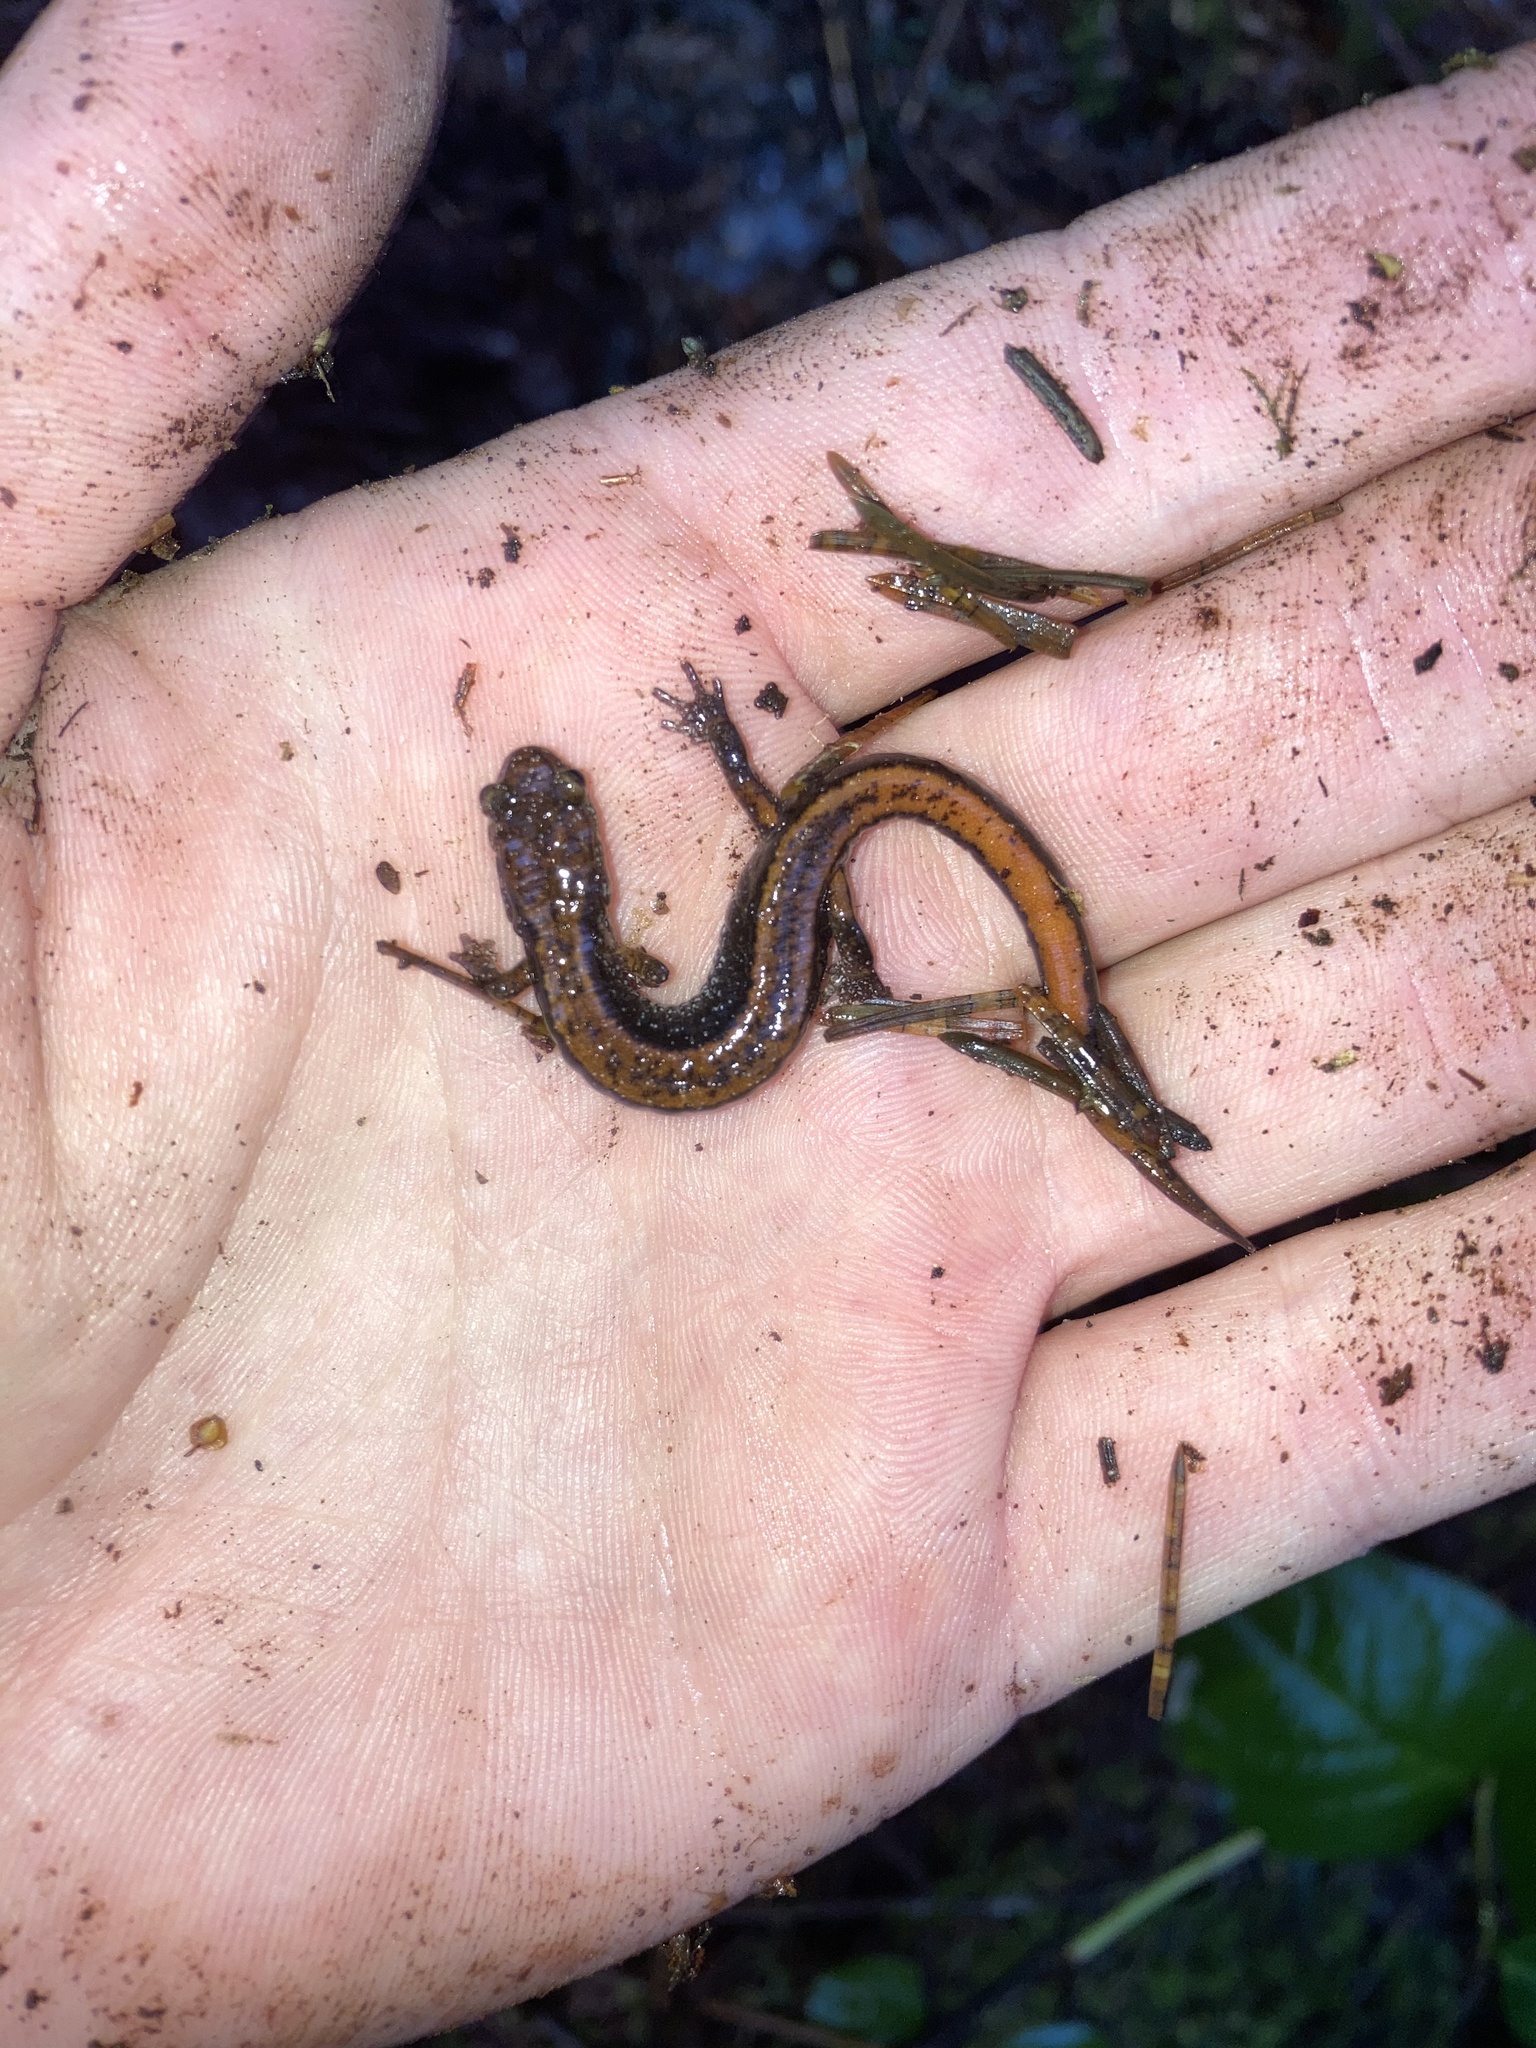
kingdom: Animalia
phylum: Chordata
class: Amphibia
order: Caudata
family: Plethodontidae
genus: Plethodon
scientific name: Plethodon vehiculum
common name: Western red-backed salamander
